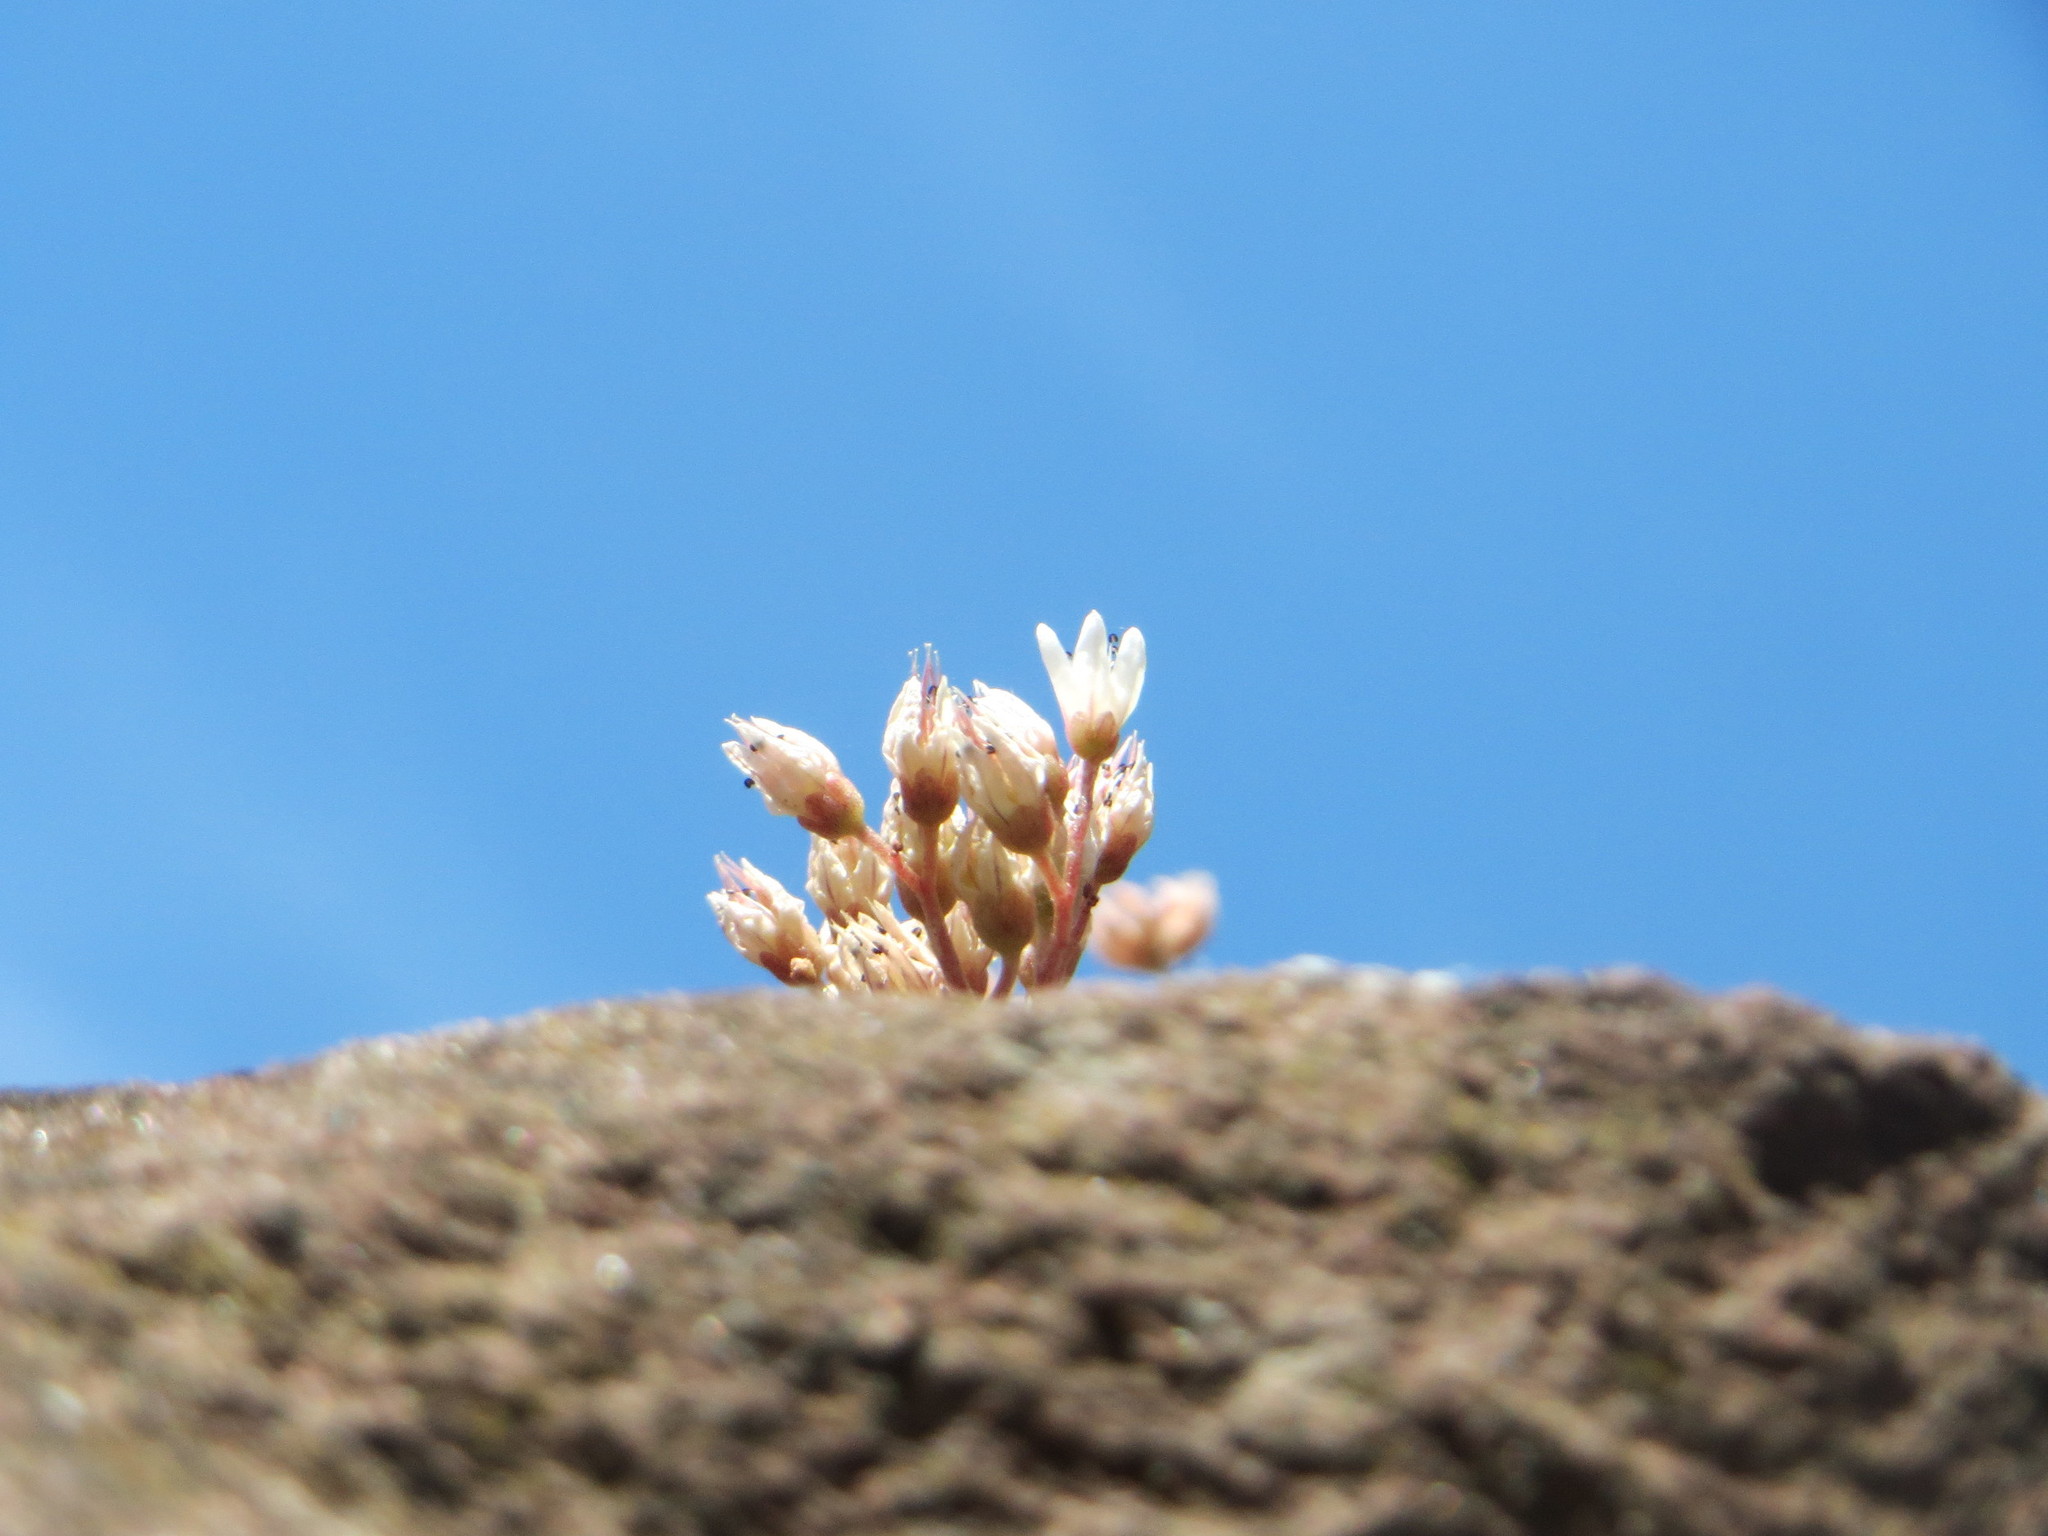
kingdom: Plantae
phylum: Tracheophyta
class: Magnoliopsida
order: Saxifragales
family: Crassulaceae
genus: Sedum
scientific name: Sedum album
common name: White stonecrop
